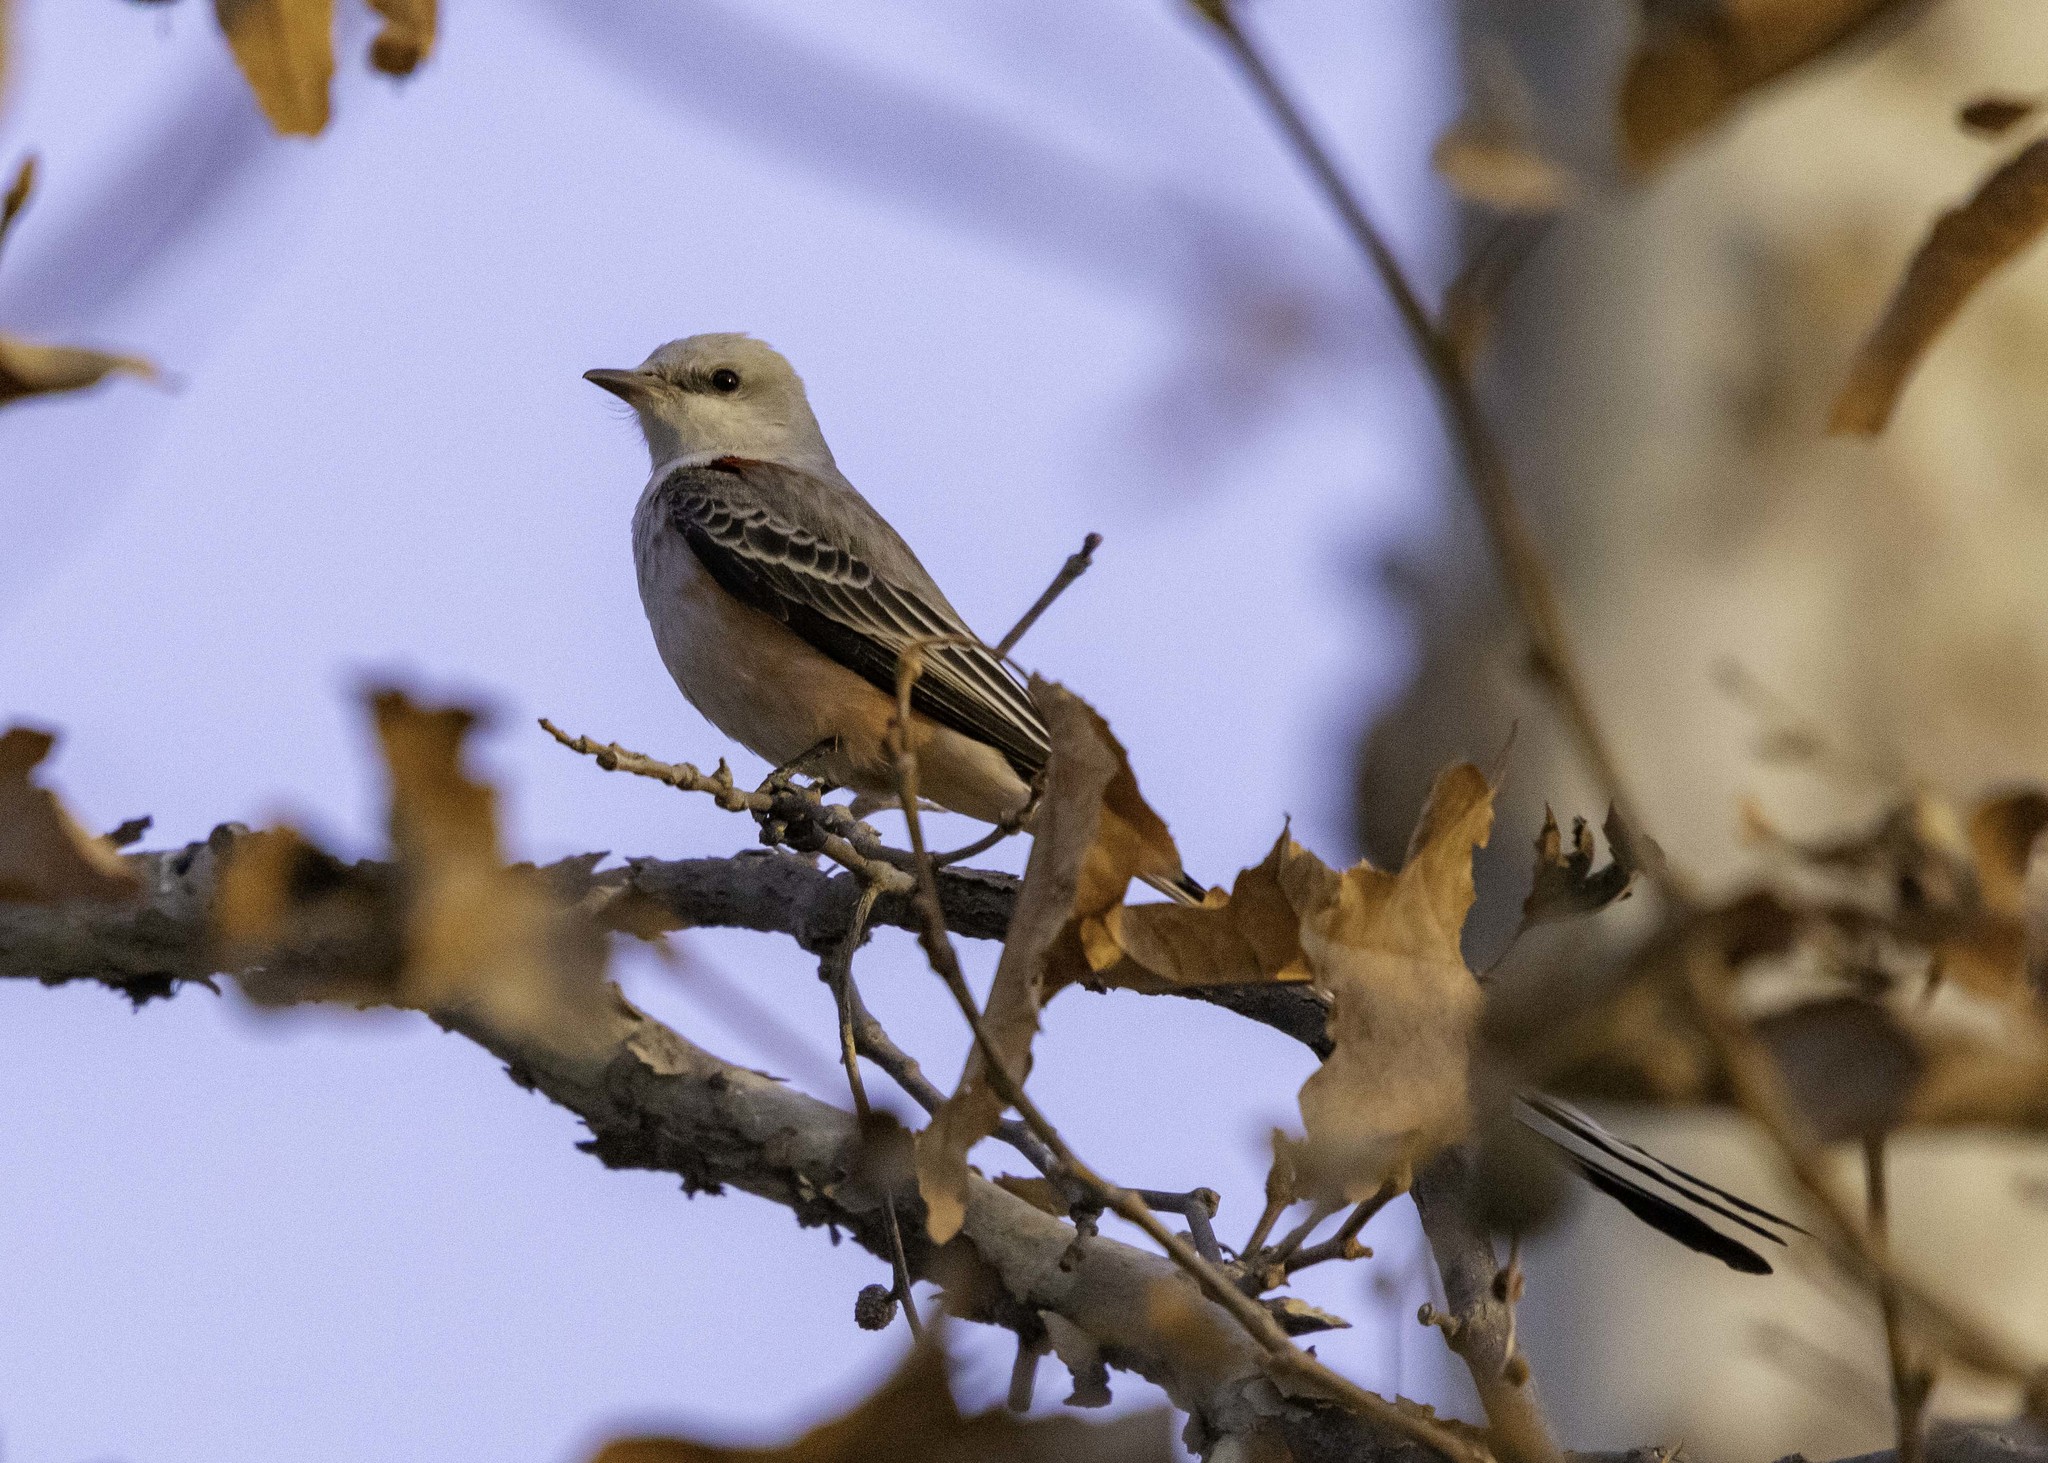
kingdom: Animalia
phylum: Chordata
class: Aves
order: Passeriformes
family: Tyrannidae
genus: Tyrannus
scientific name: Tyrannus forficatus
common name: Scissor-tailed flycatcher
